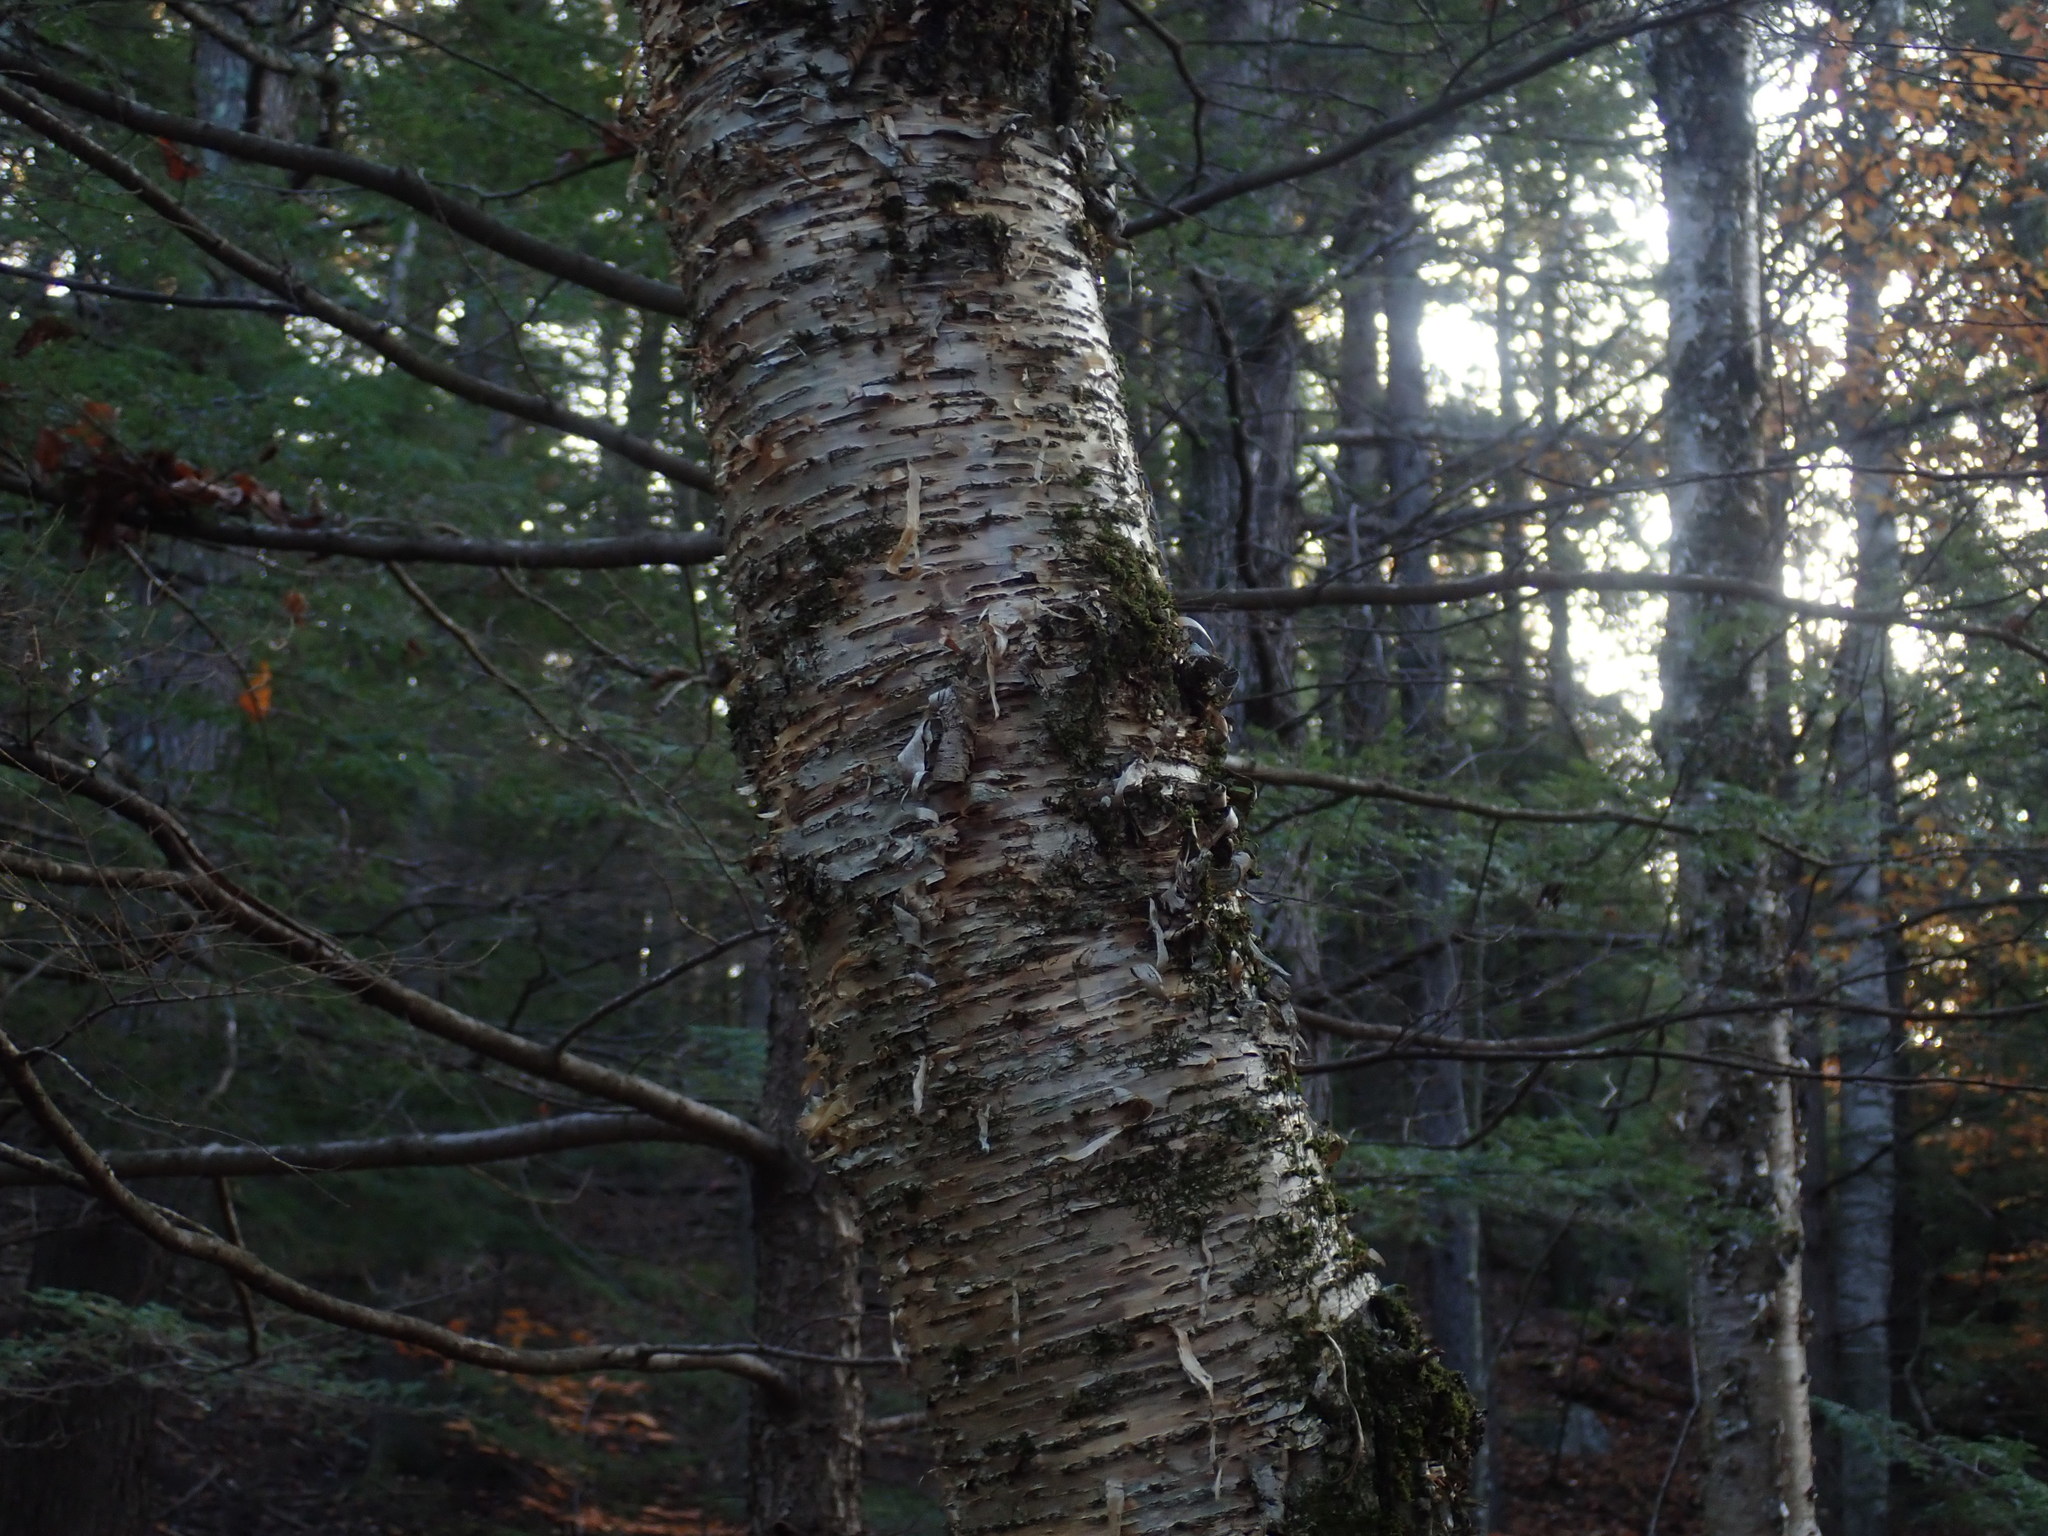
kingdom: Plantae
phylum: Tracheophyta
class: Magnoliopsida
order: Fagales
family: Betulaceae
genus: Betula
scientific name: Betula alleghaniensis
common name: Yellow birch
